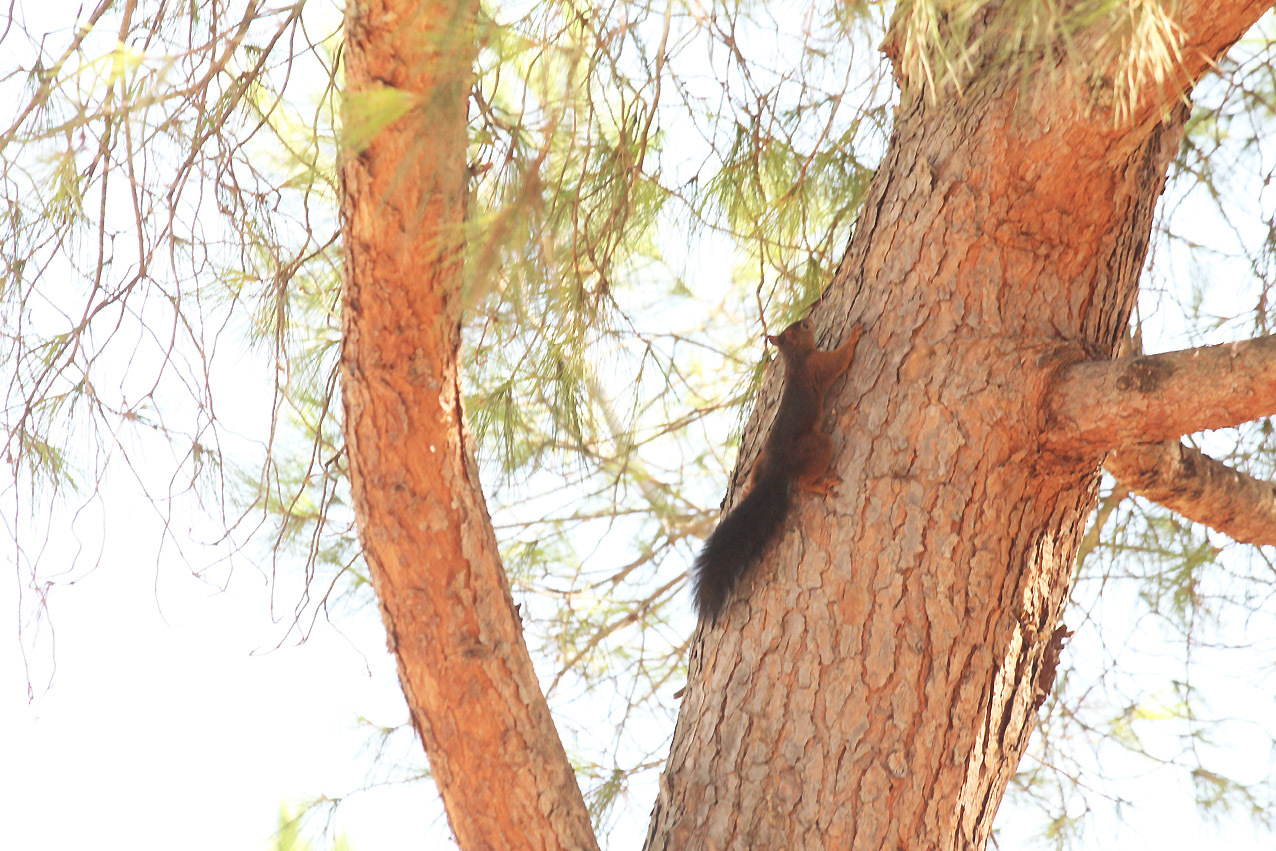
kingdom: Animalia
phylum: Chordata
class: Mammalia
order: Rodentia
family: Sciuridae
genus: Sciurus
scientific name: Sciurus vulgaris
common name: Eurasian red squirrel
